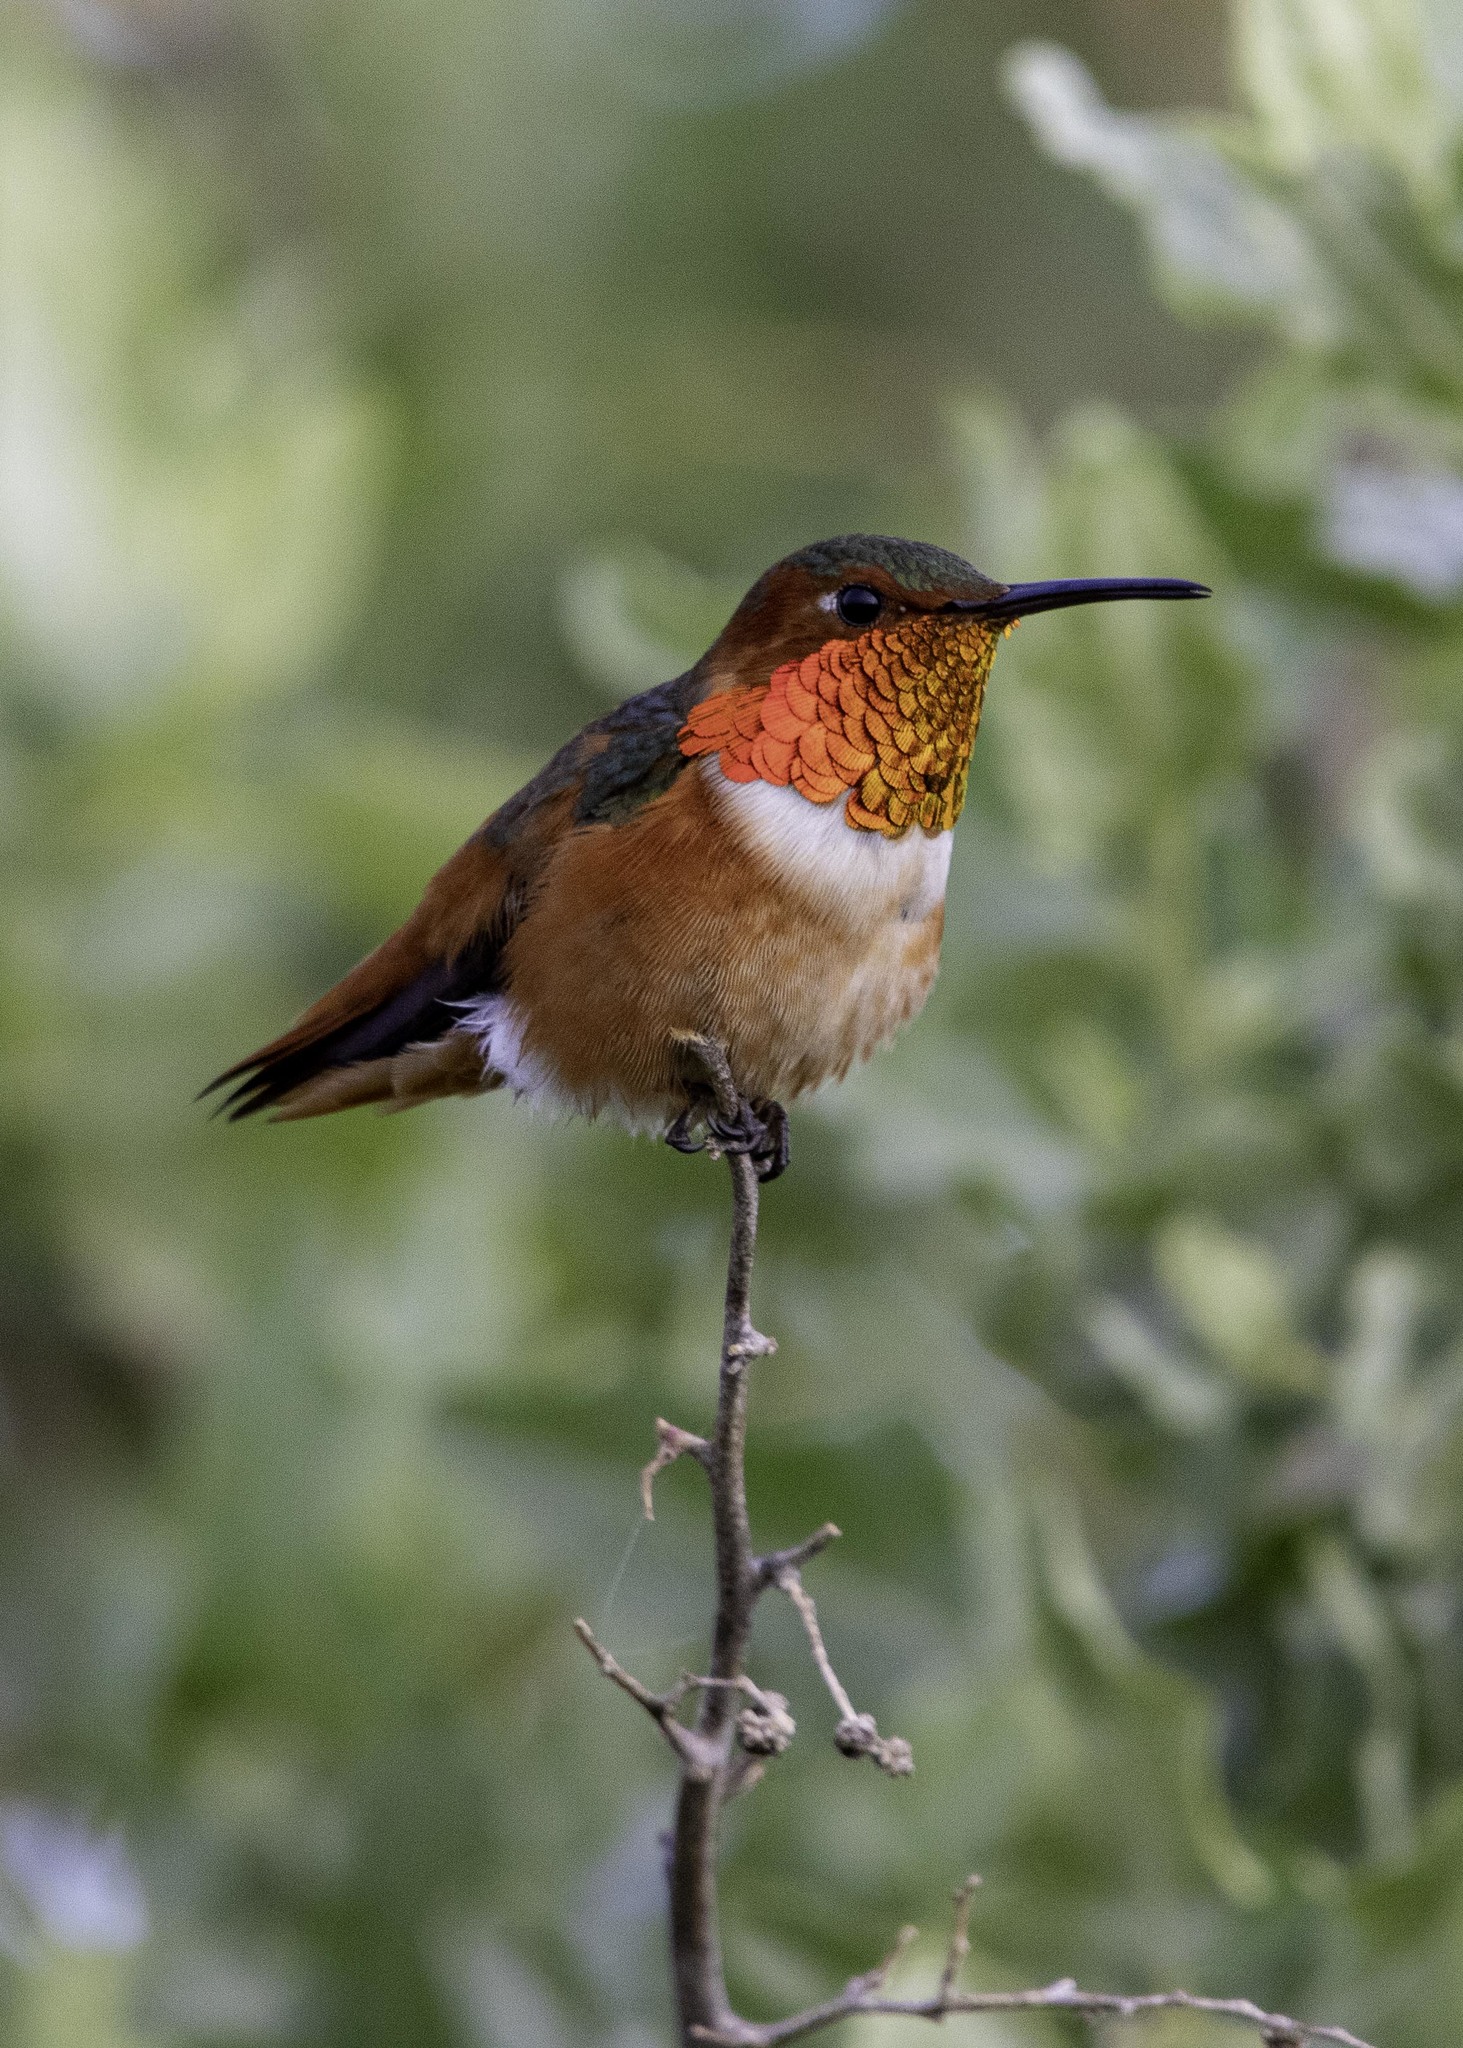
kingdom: Animalia
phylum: Chordata
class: Aves
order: Apodiformes
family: Trochilidae
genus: Selasphorus
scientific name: Selasphorus sasin
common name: Allen's hummingbird
